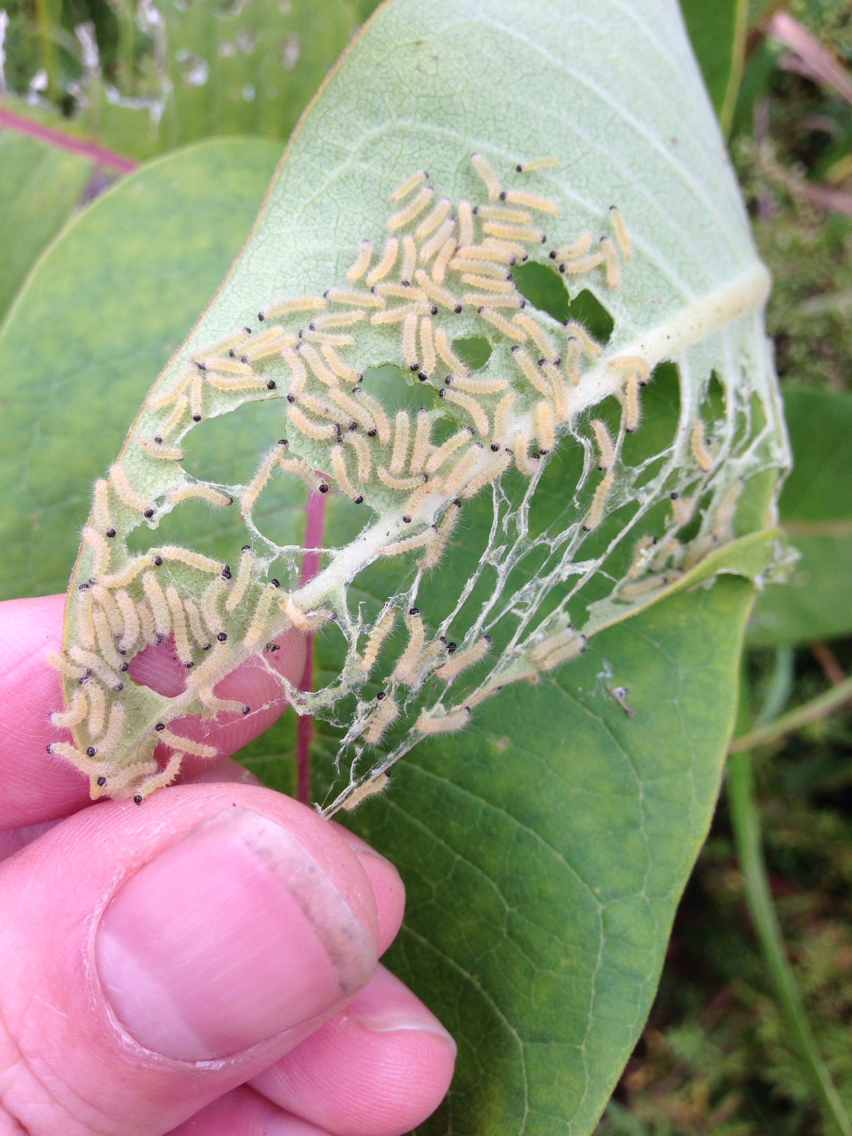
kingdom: Animalia
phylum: Arthropoda
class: Insecta
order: Lepidoptera
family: Erebidae
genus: Euchaetes
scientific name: Euchaetes egle
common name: Milkweed tussock moth
